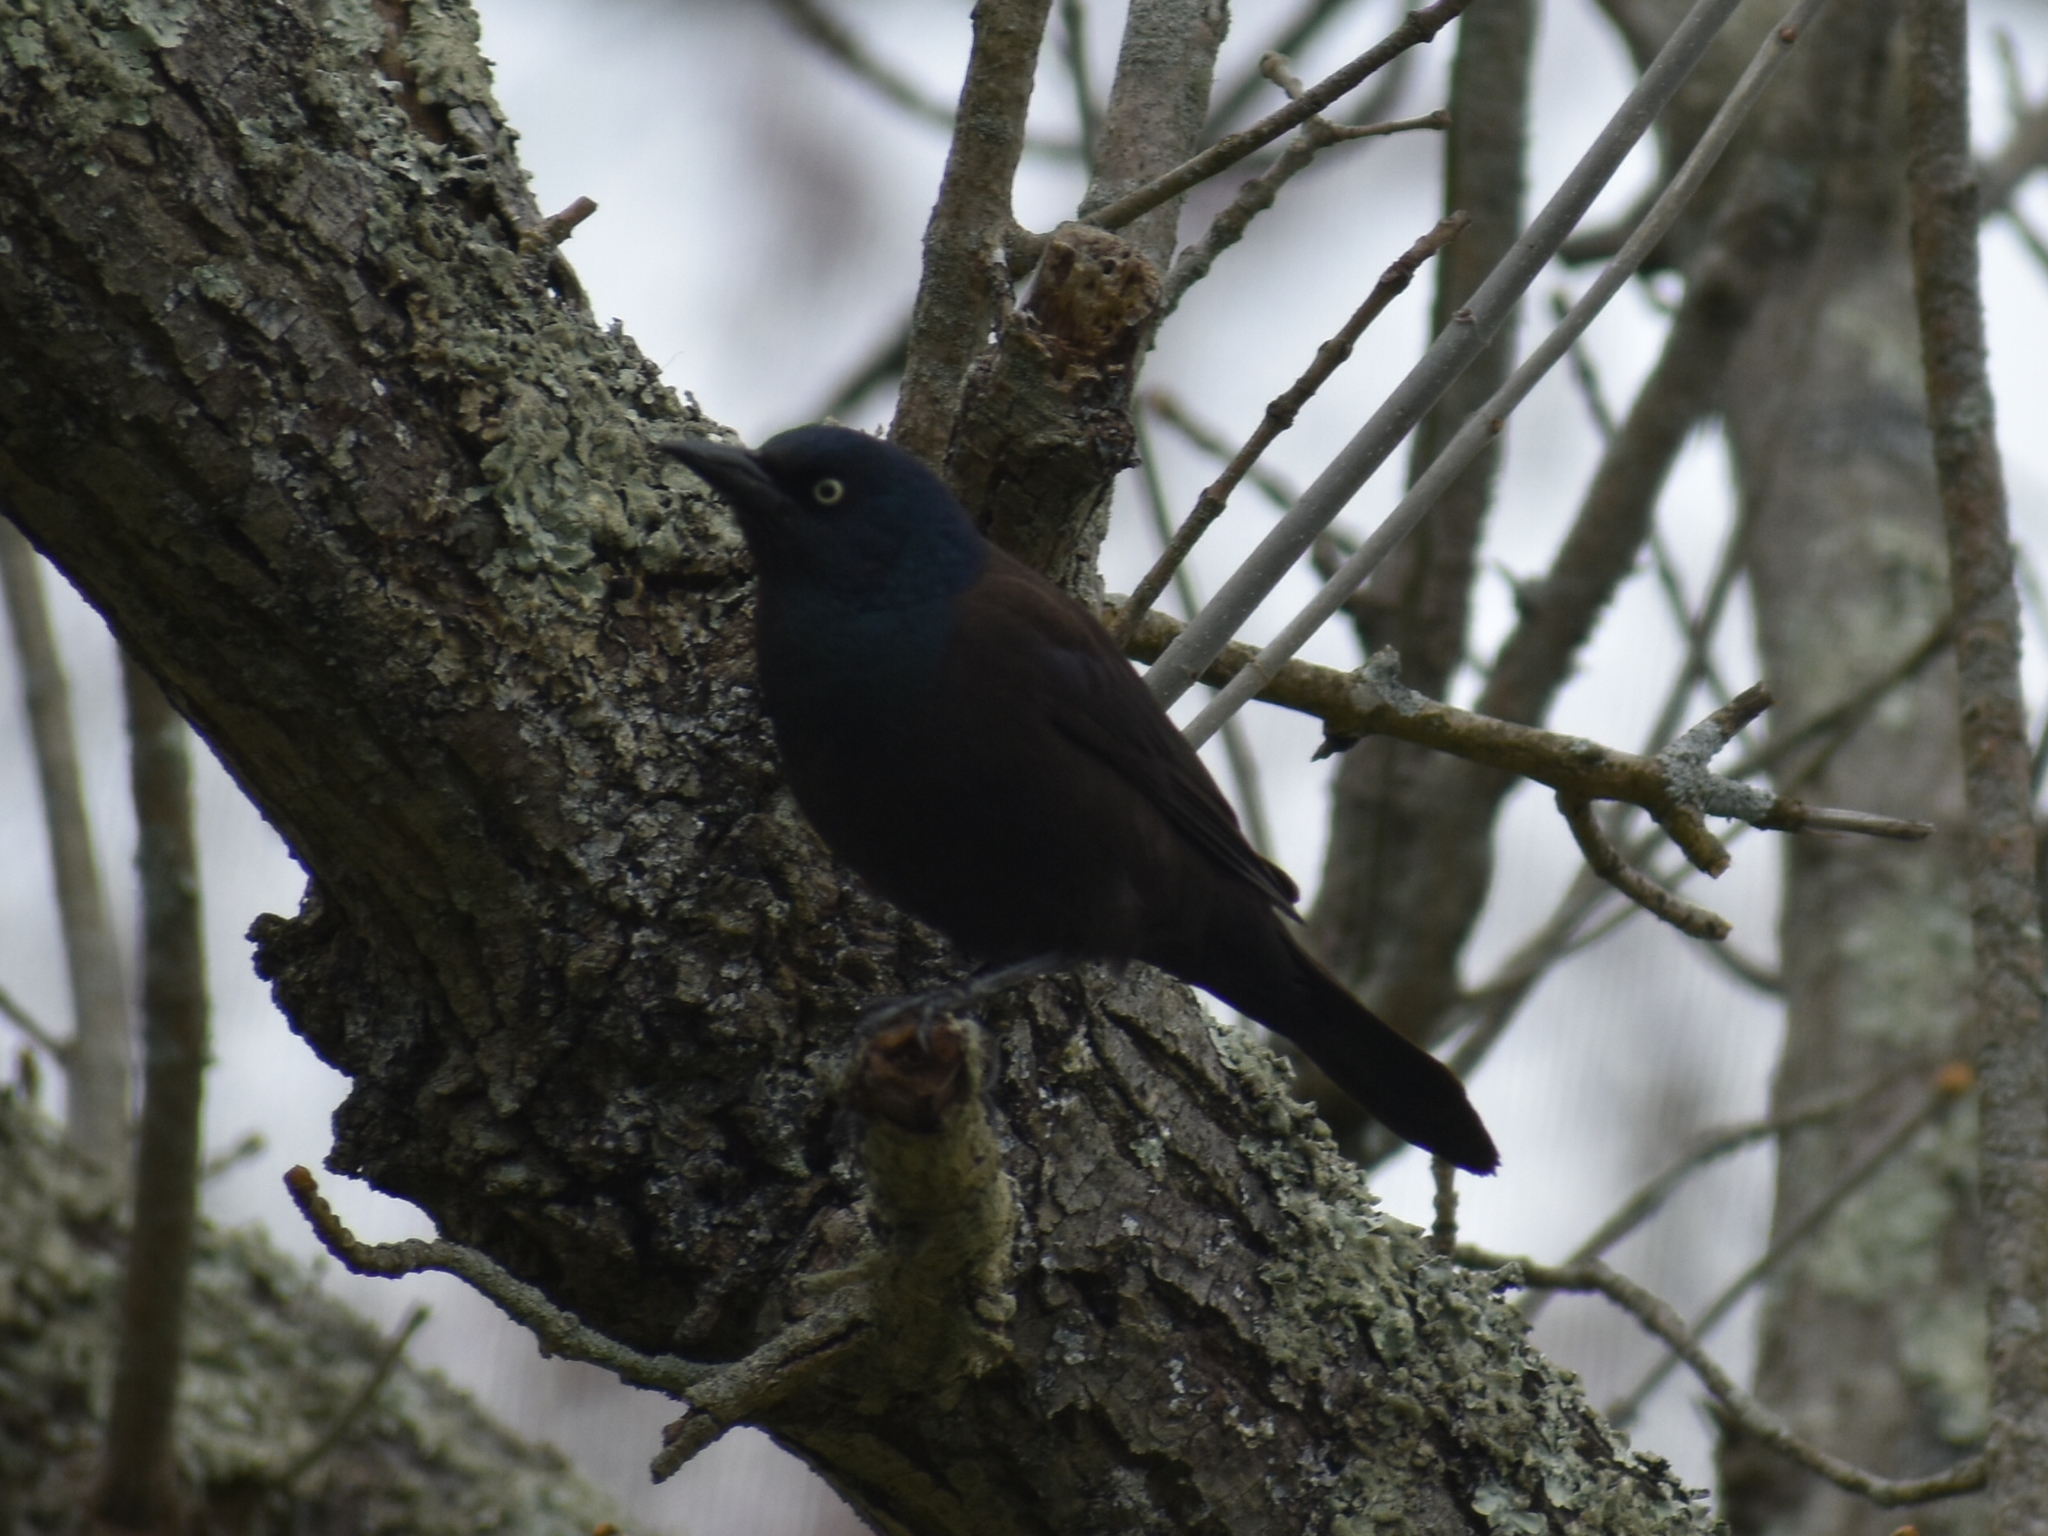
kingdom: Animalia
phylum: Chordata
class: Aves
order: Passeriformes
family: Icteridae
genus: Quiscalus
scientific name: Quiscalus quiscula
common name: Common grackle
